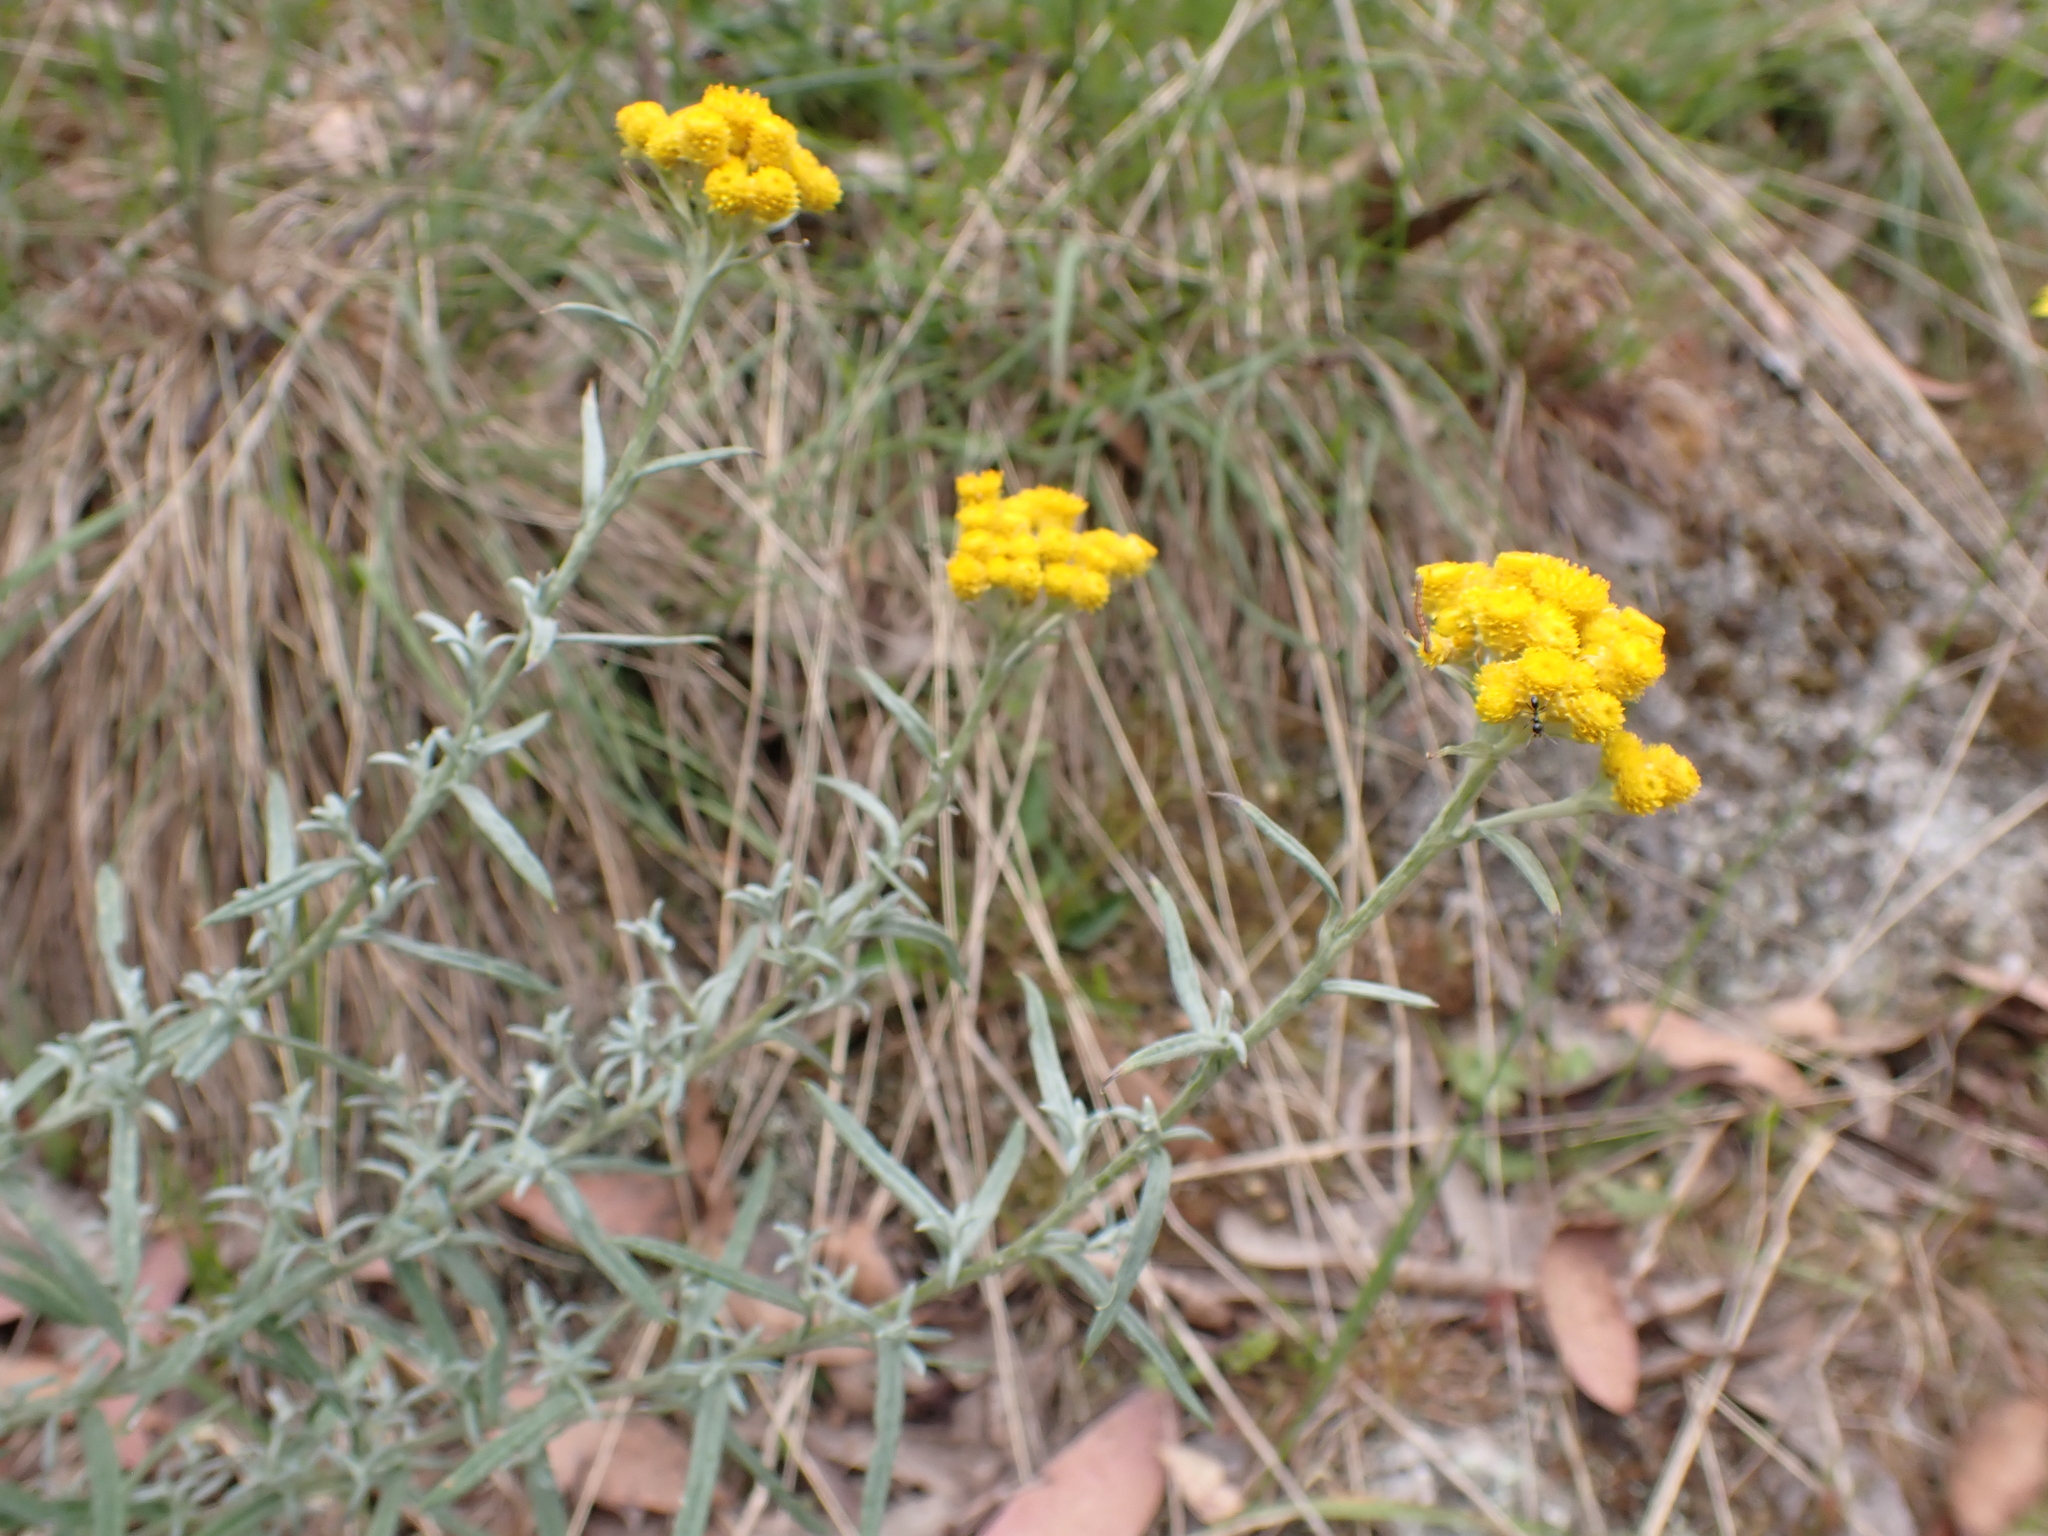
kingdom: Plantae
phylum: Tracheophyta
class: Magnoliopsida
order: Asterales
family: Asteraceae
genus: Chrysocephalum
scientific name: Chrysocephalum semipapposum
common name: Clustered everlasting
